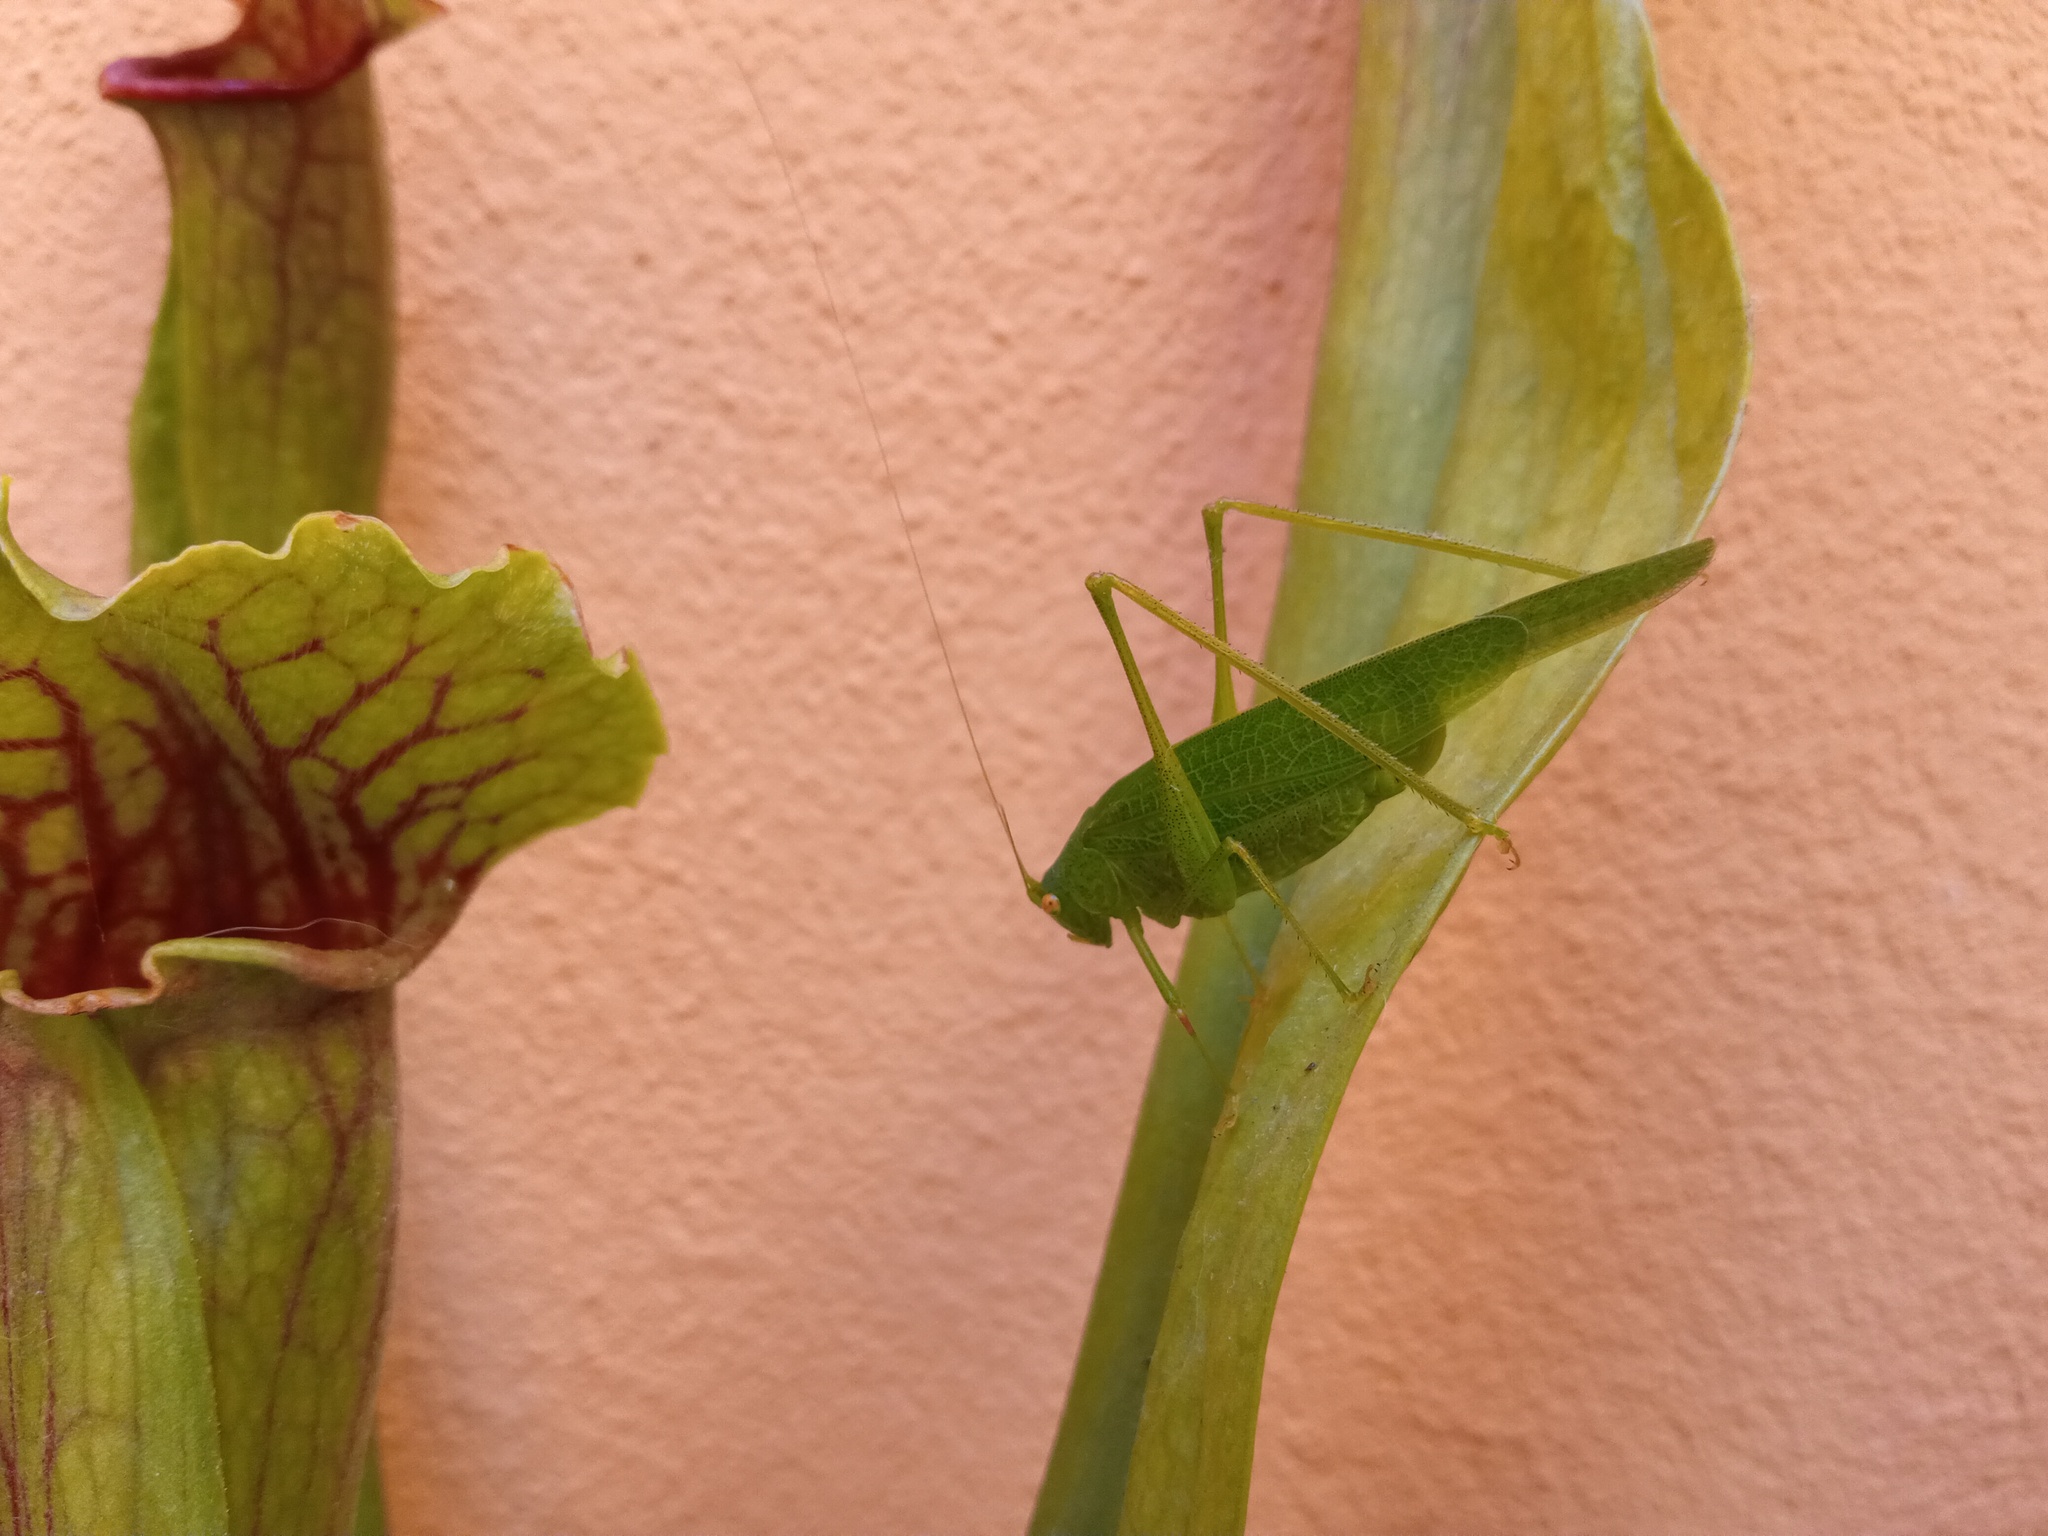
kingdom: Animalia
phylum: Arthropoda
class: Insecta
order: Orthoptera
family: Tettigoniidae
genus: Phaneroptera
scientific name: Phaneroptera nana
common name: Southern sickle bush-cricket
